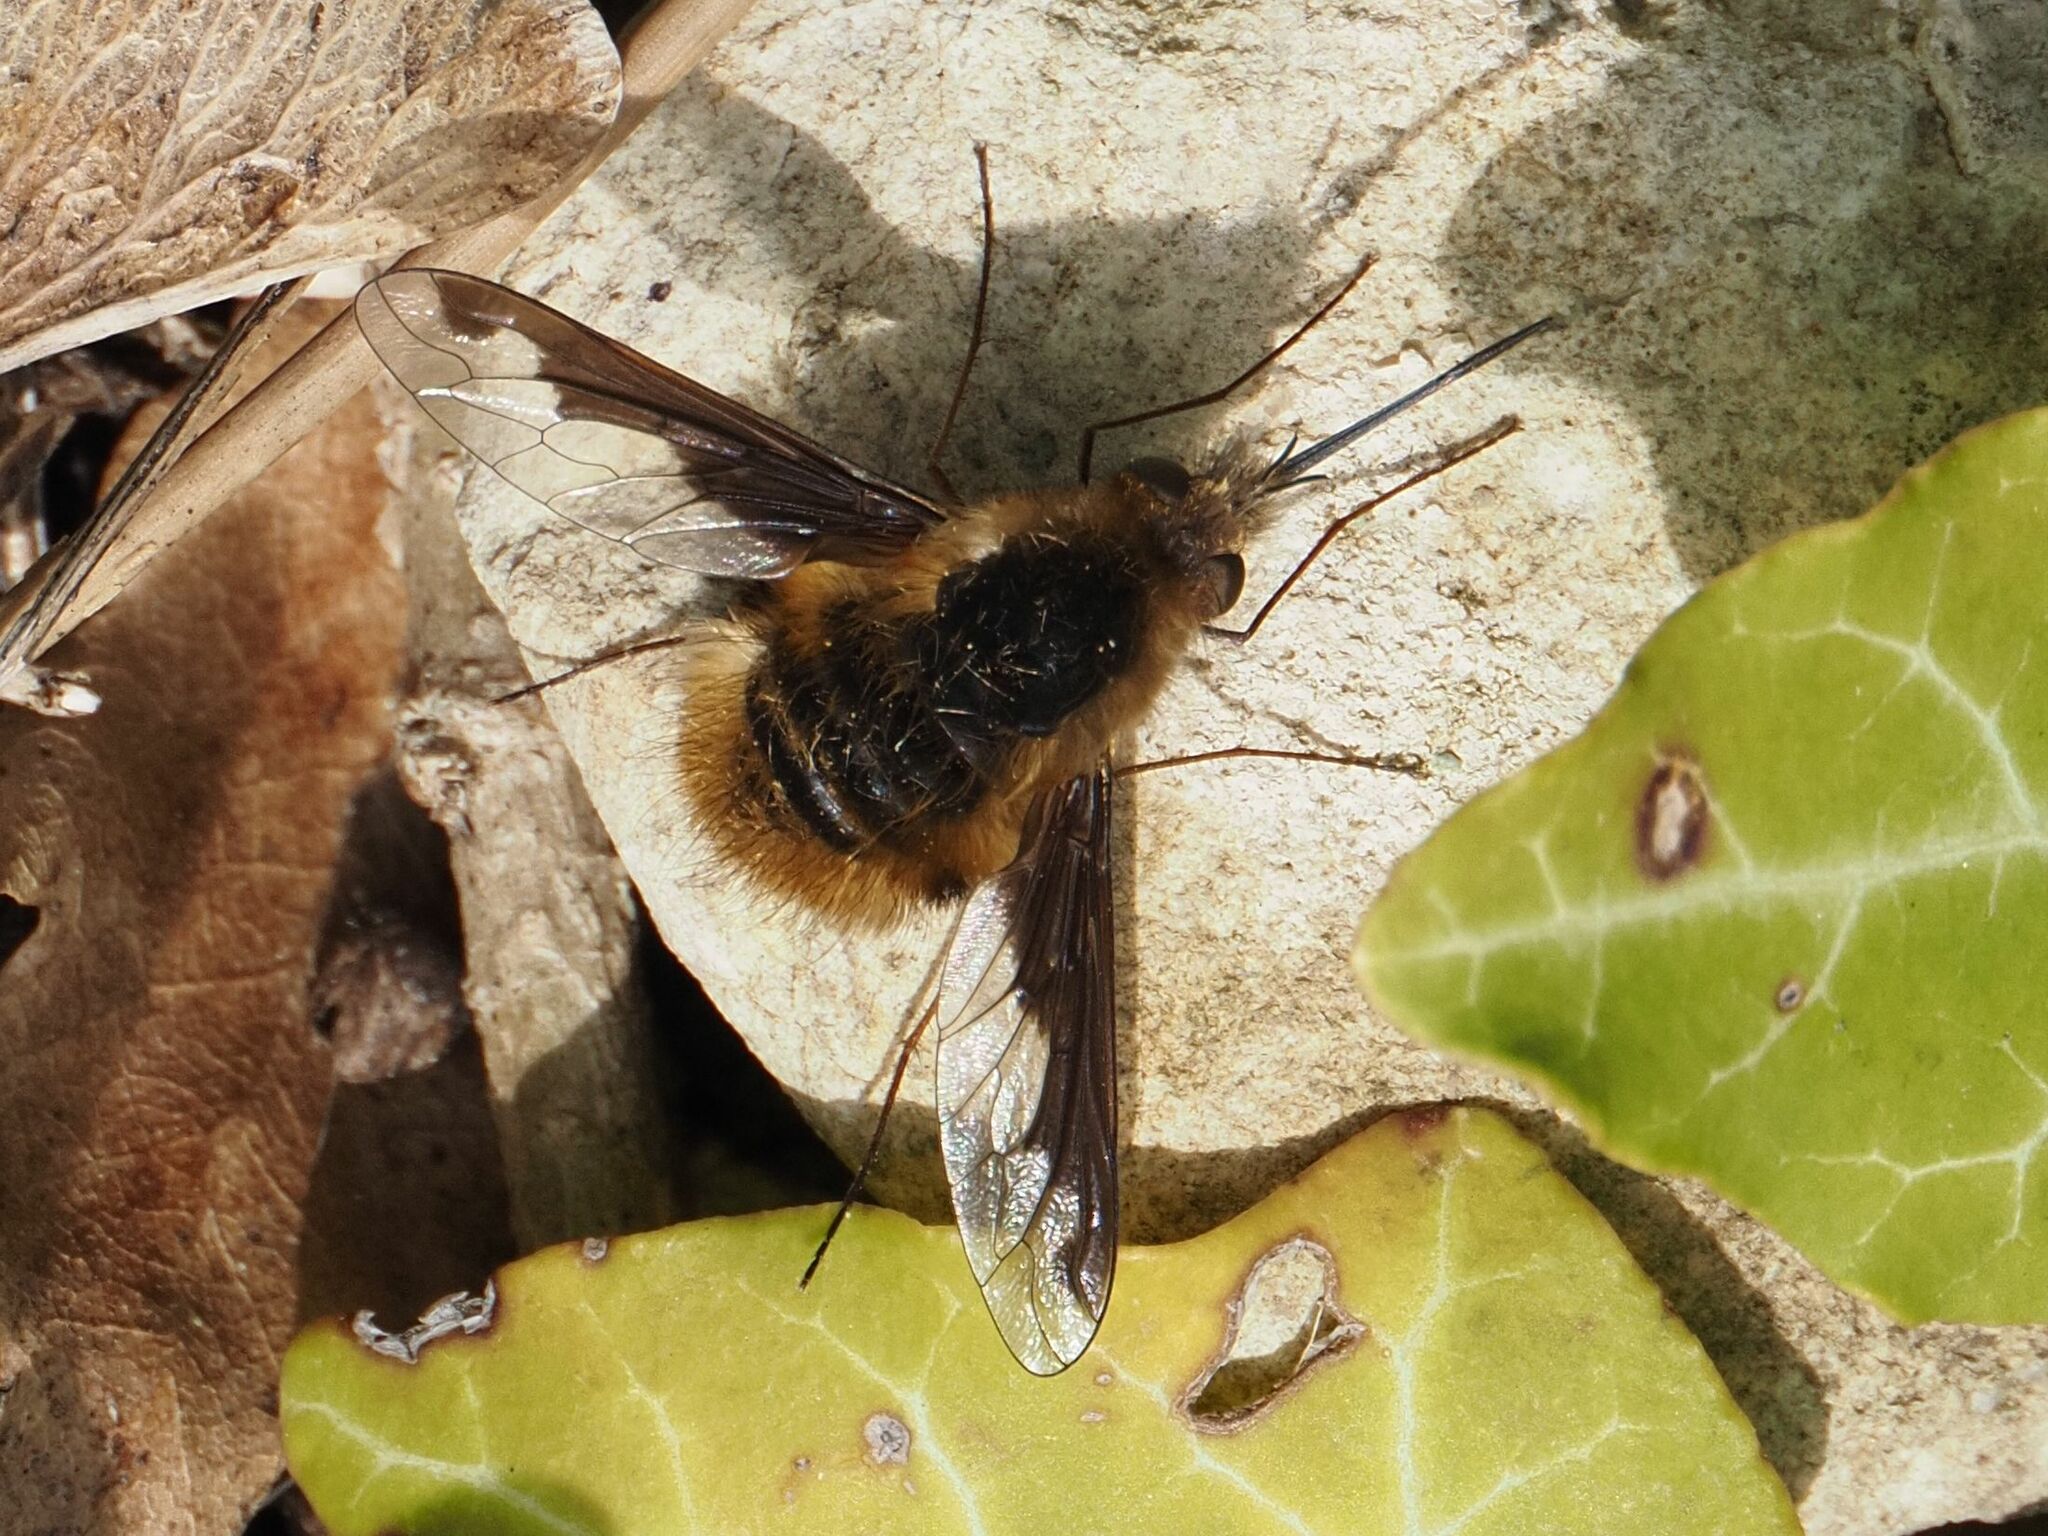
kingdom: Animalia
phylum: Arthropoda
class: Insecta
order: Diptera
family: Bombyliidae
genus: Bombylius
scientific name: Bombylius major
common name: Bee fly
